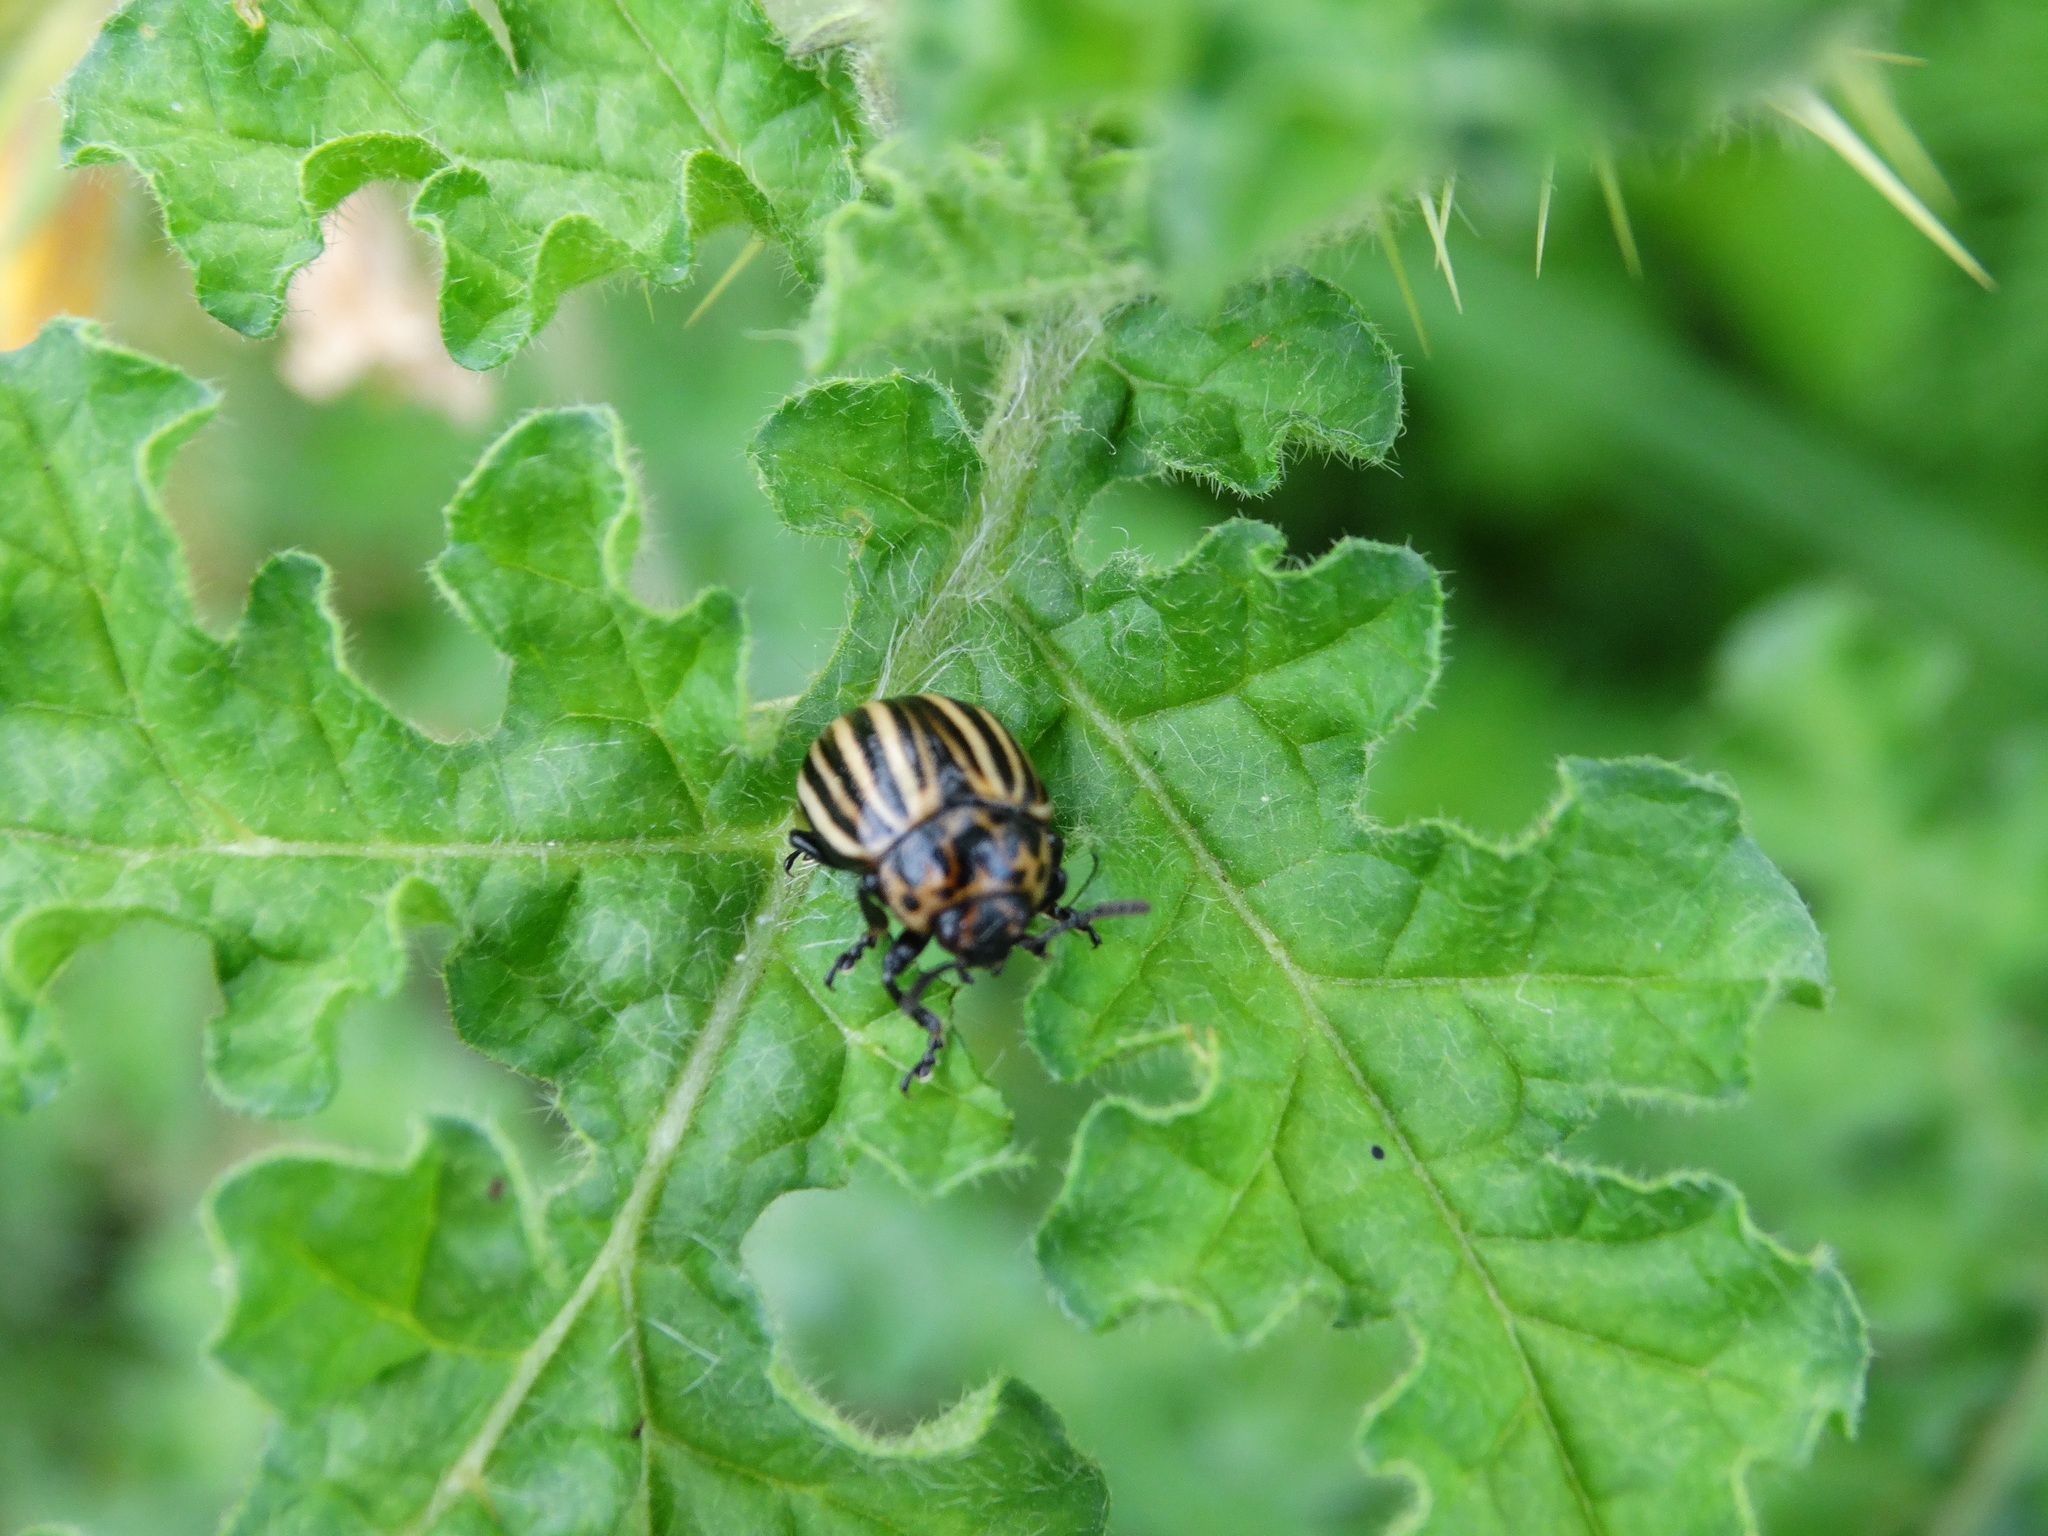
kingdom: Animalia
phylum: Arthropoda
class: Insecta
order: Coleoptera
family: Chrysomelidae
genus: Leptinotarsa
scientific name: Leptinotarsa decemlineata
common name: Colorado potato beetle
